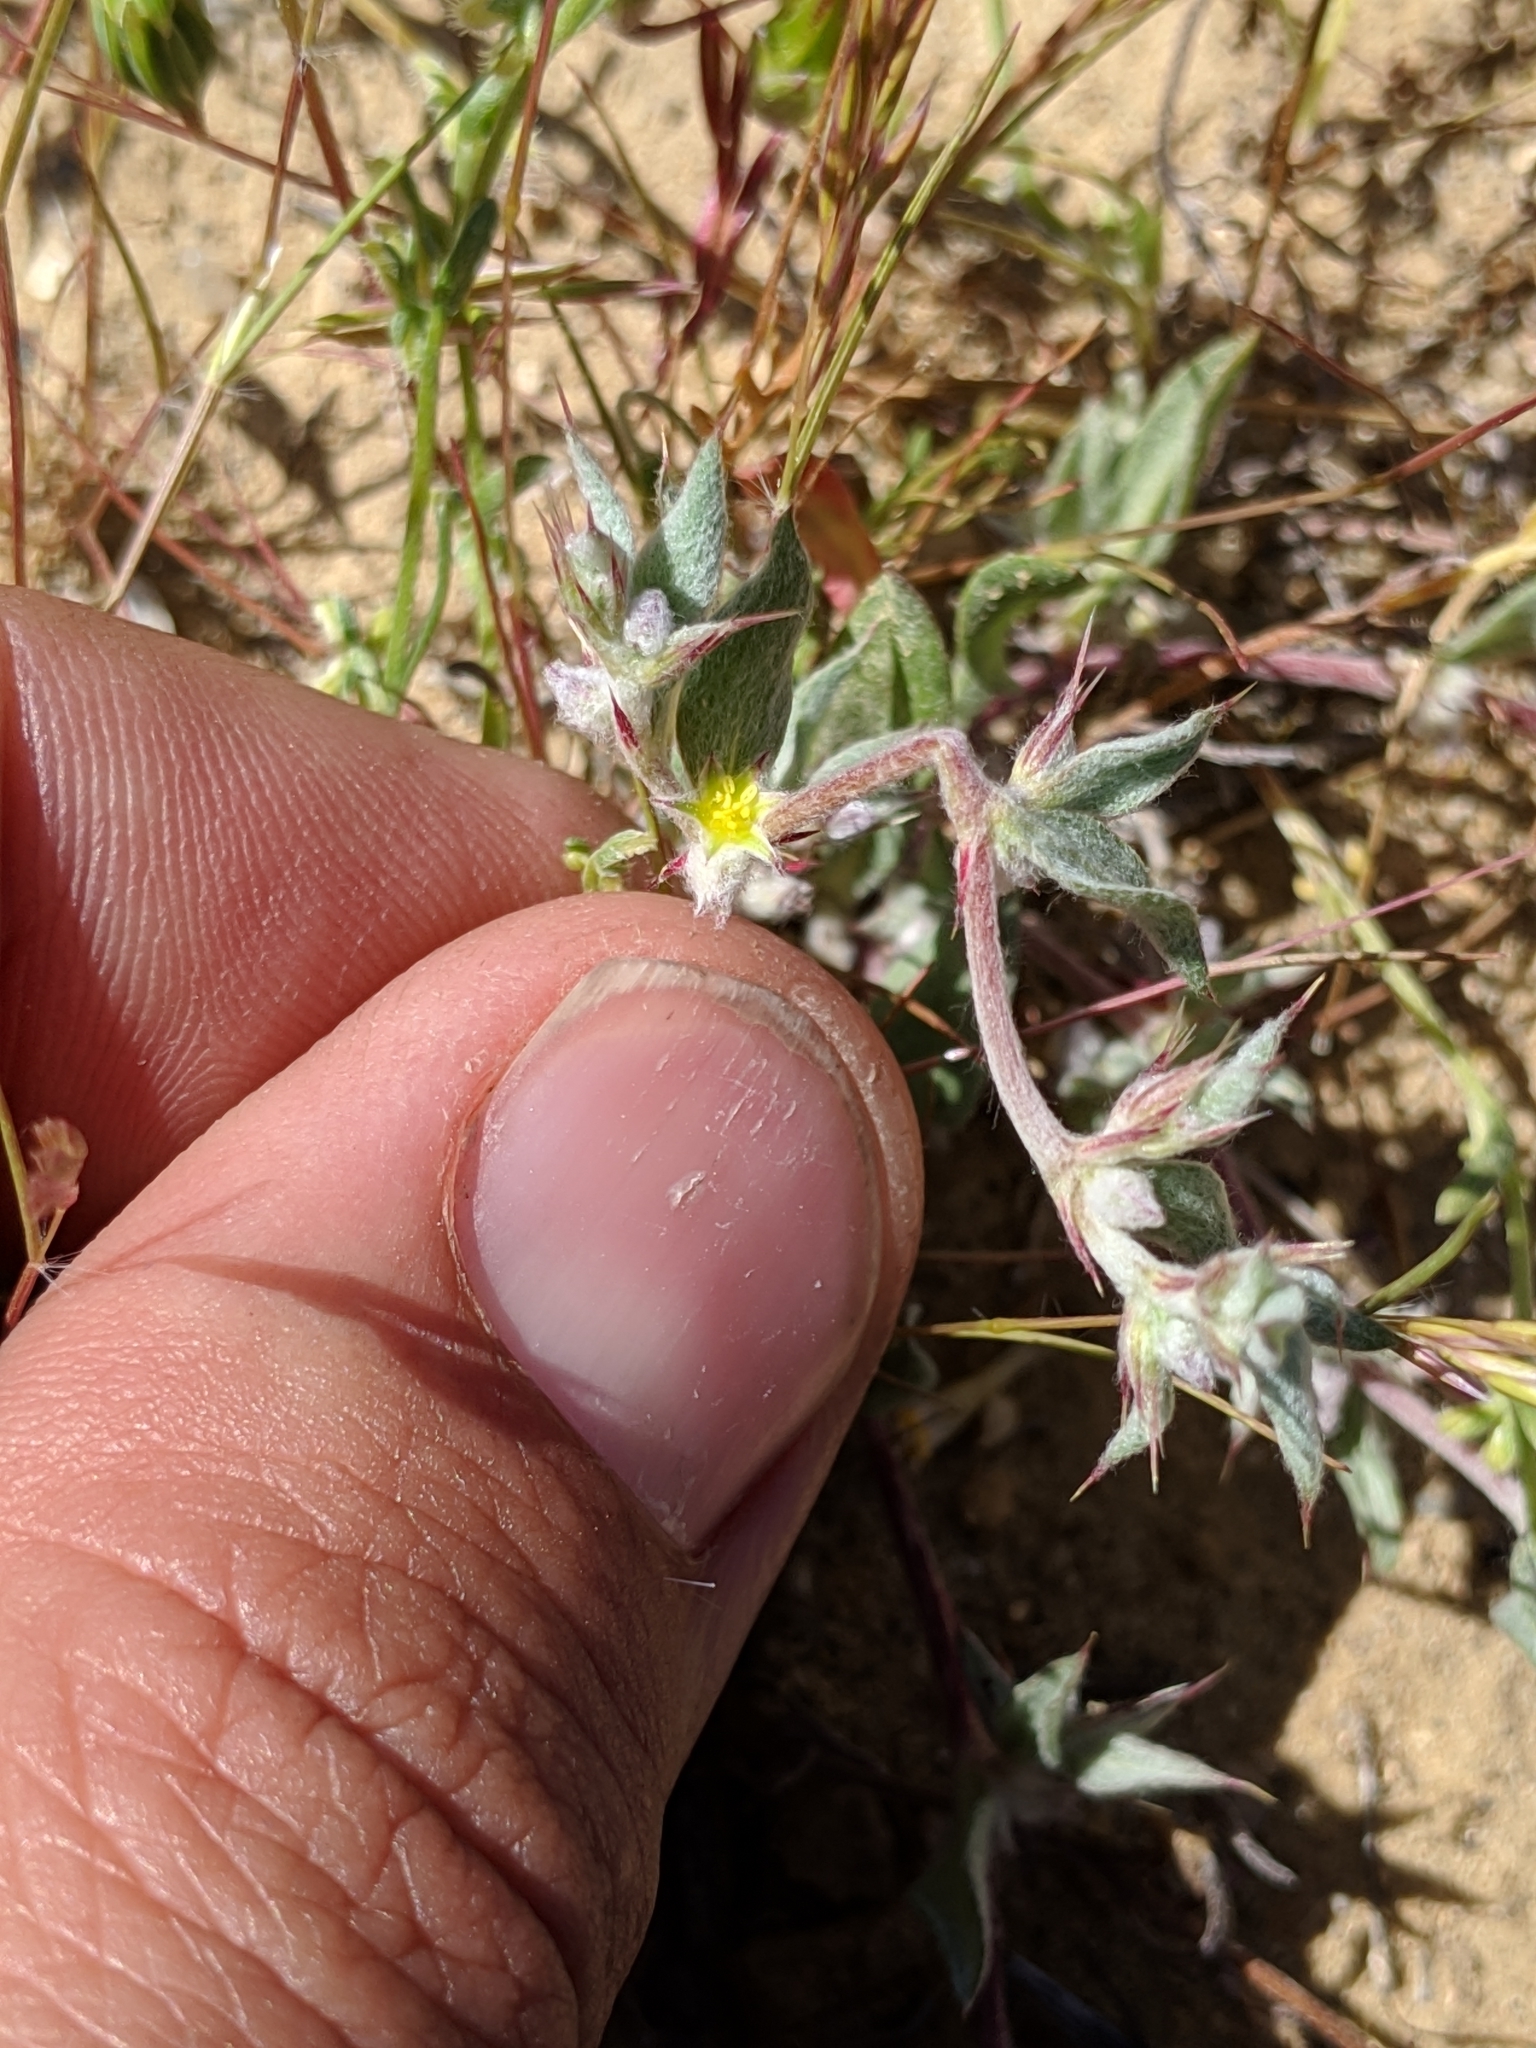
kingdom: Plantae
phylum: Tracheophyta
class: Magnoliopsida
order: Caryophyllales
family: Polygonaceae
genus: Hollisteria
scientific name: Hollisteria lanata
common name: False spike-flower
